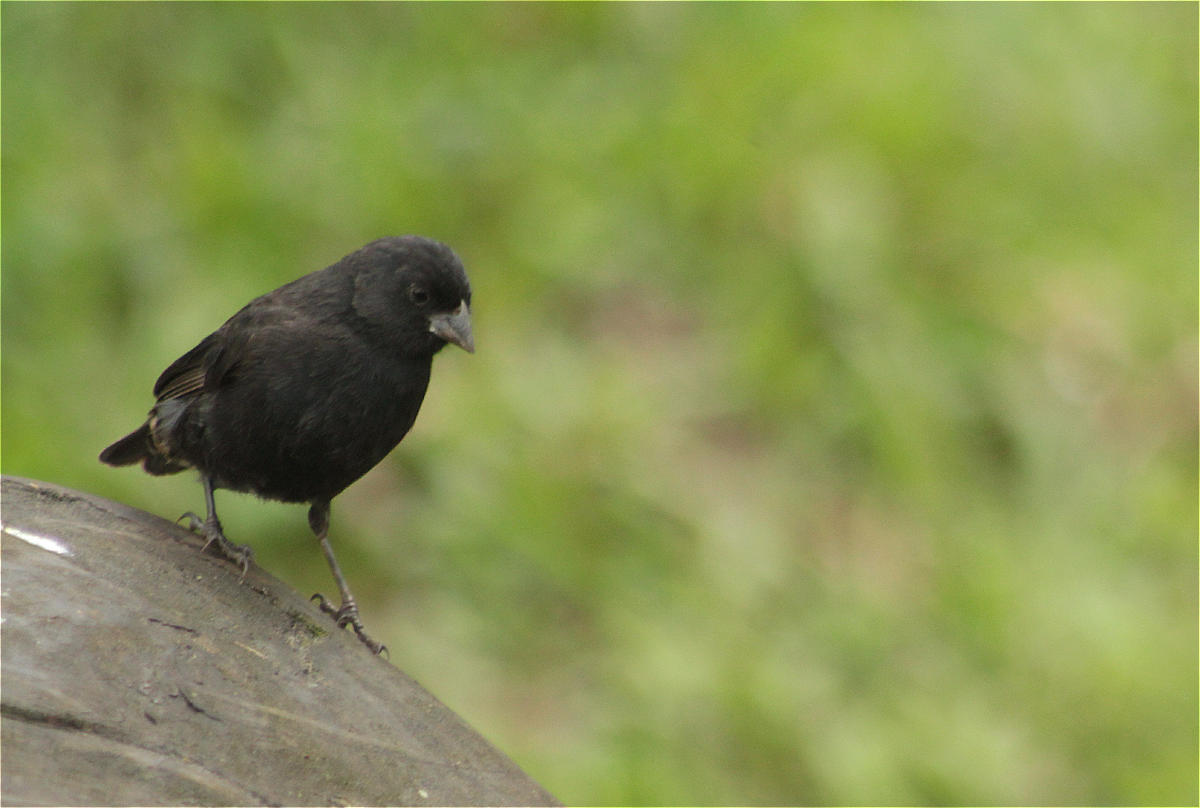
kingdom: Animalia
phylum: Chordata
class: Aves
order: Passeriformes
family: Thraupidae
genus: Geospiza
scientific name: Geospiza fuliginosa
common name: Small ground finch
